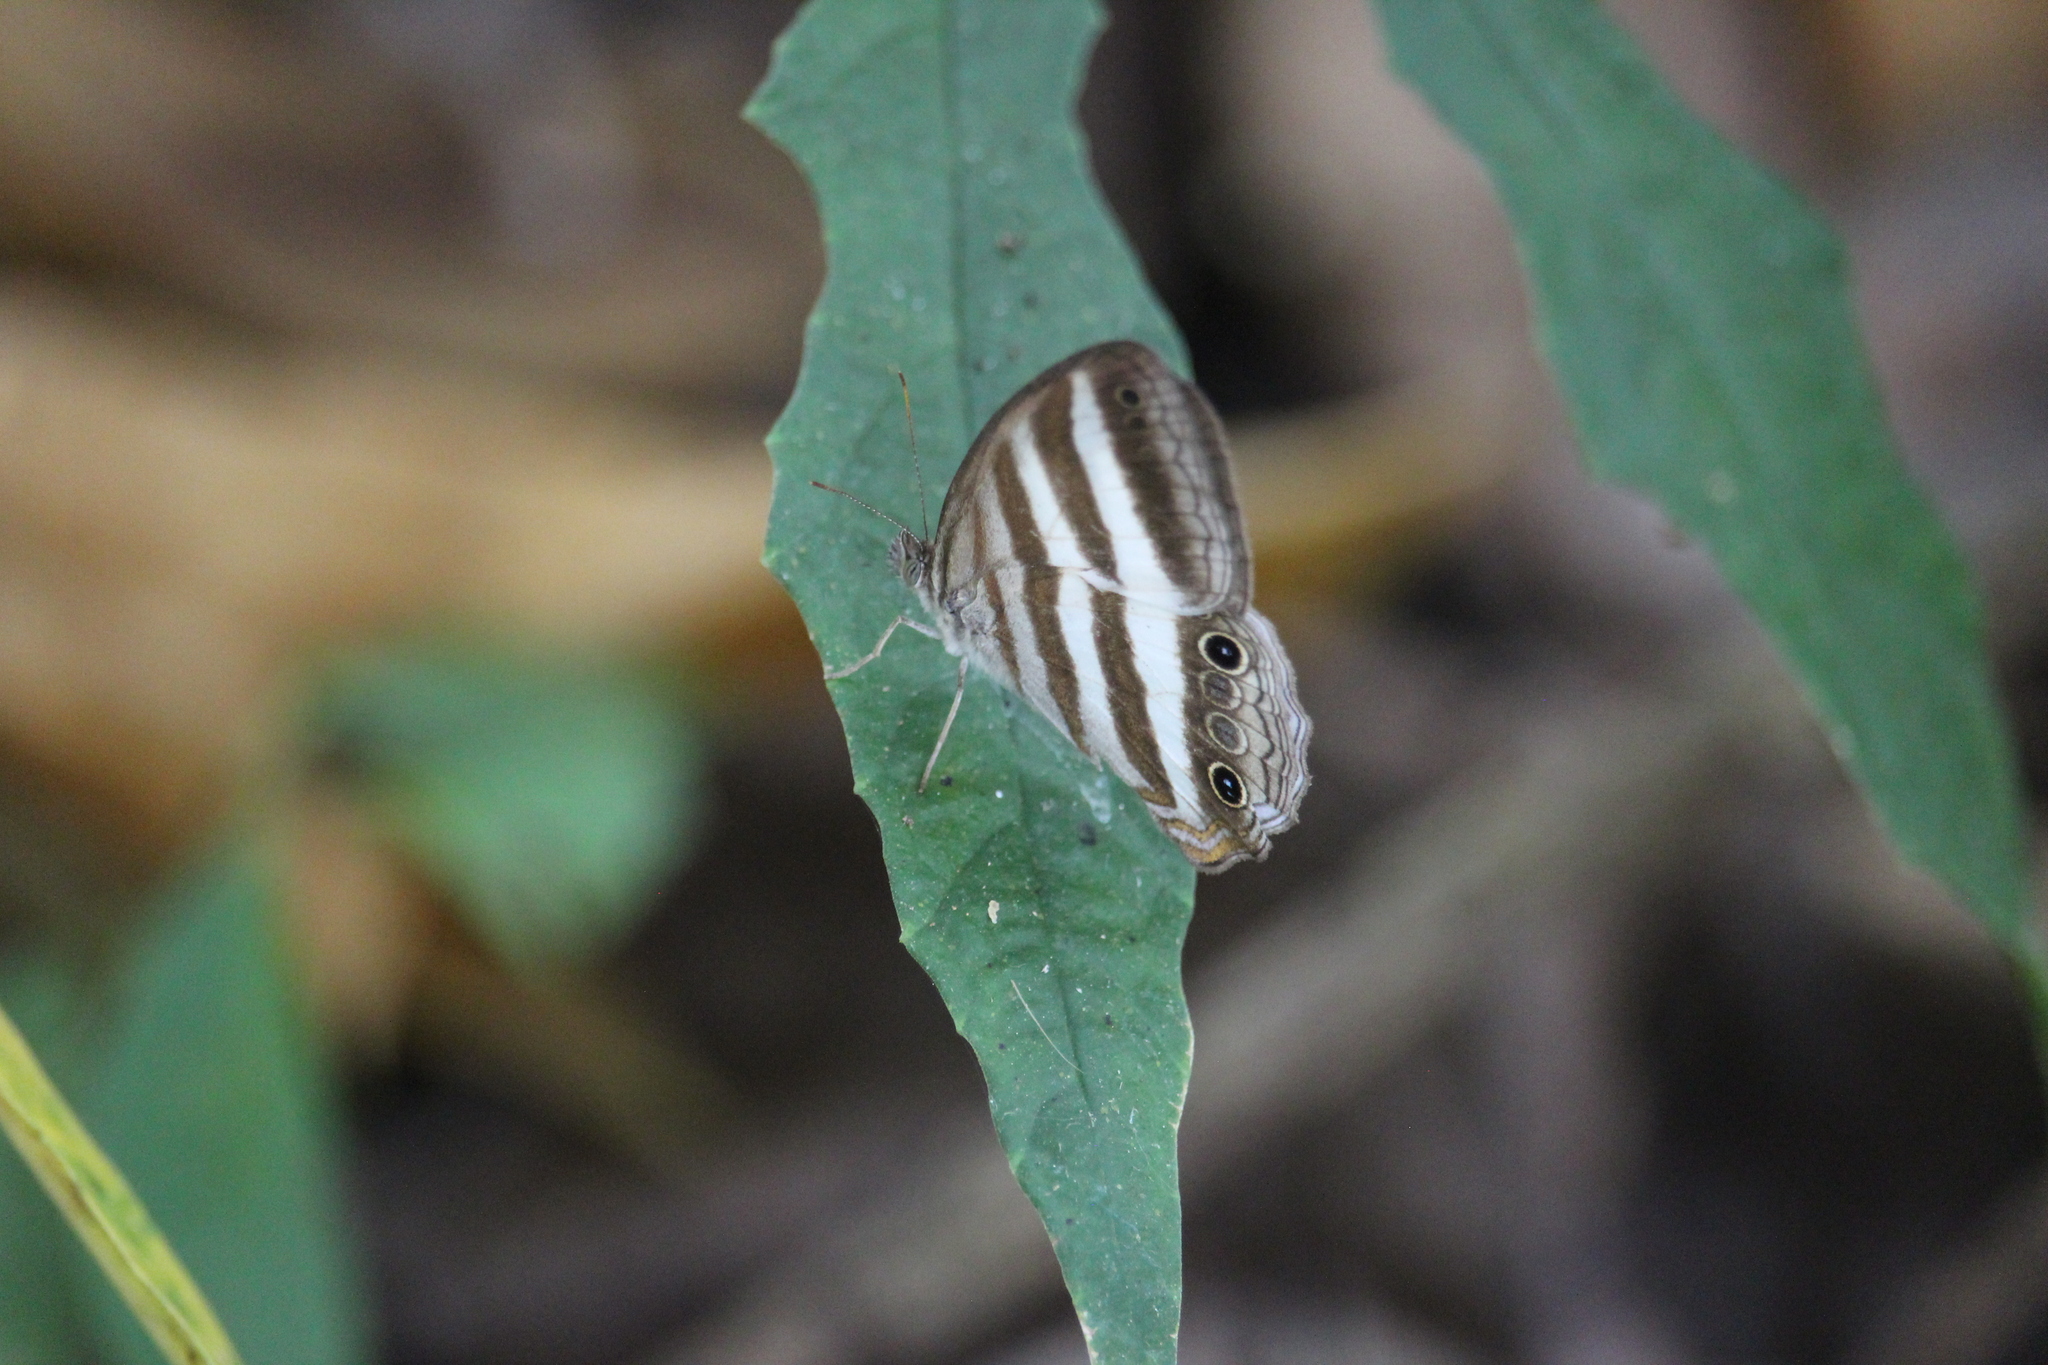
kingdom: Animalia
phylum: Arthropoda
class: Insecta
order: Lepidoptera
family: Nymphalidae
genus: Pareuptychia
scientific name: Pareuptychia hesione
